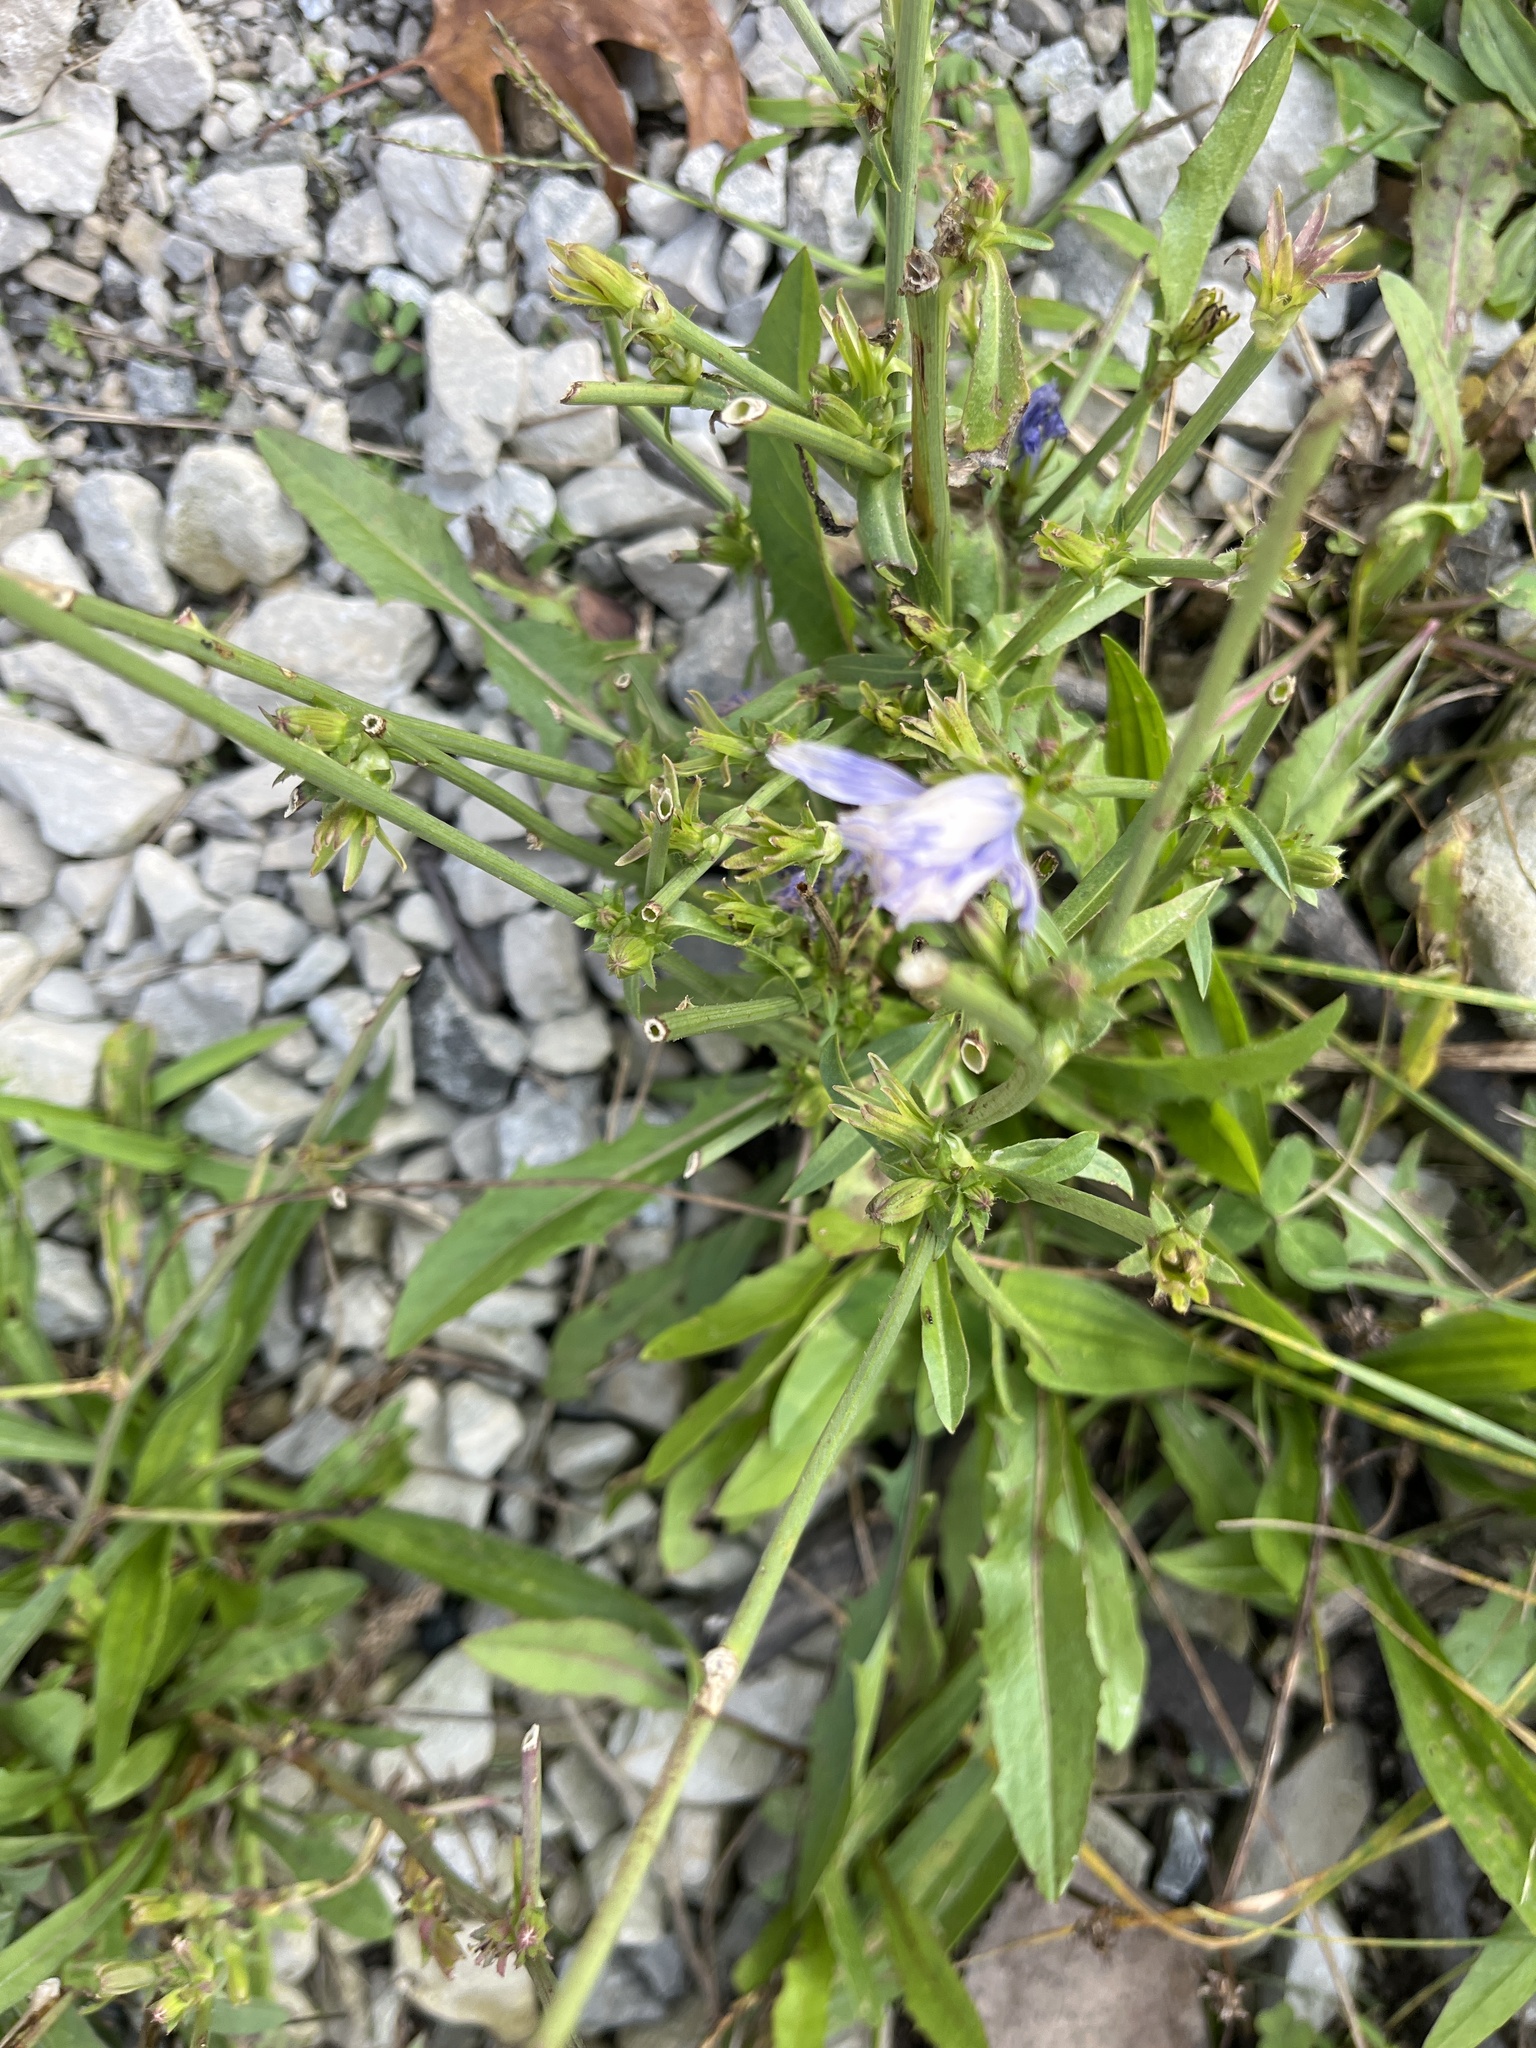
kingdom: Plantae
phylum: Tracheophyta
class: Magnoliopsida
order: Asterales
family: Asteraceae
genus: Cichorium
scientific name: Cichorium intybus
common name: Chicory
